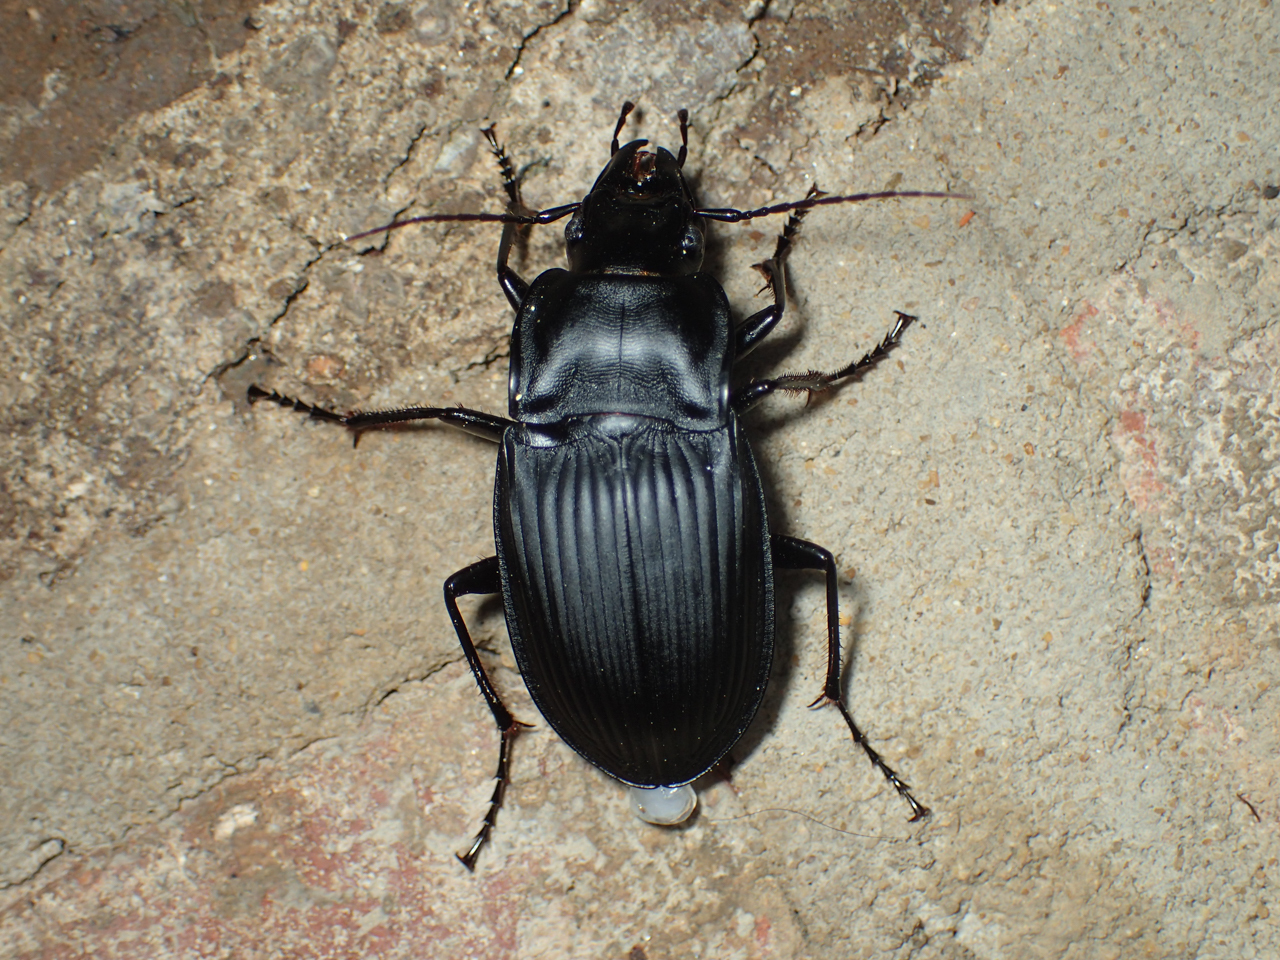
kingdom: Animalia
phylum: Arthropoda
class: Insecta
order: Coleoptera
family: Carabidae
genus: Dicaelus
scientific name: Dicaelus dilatatus
